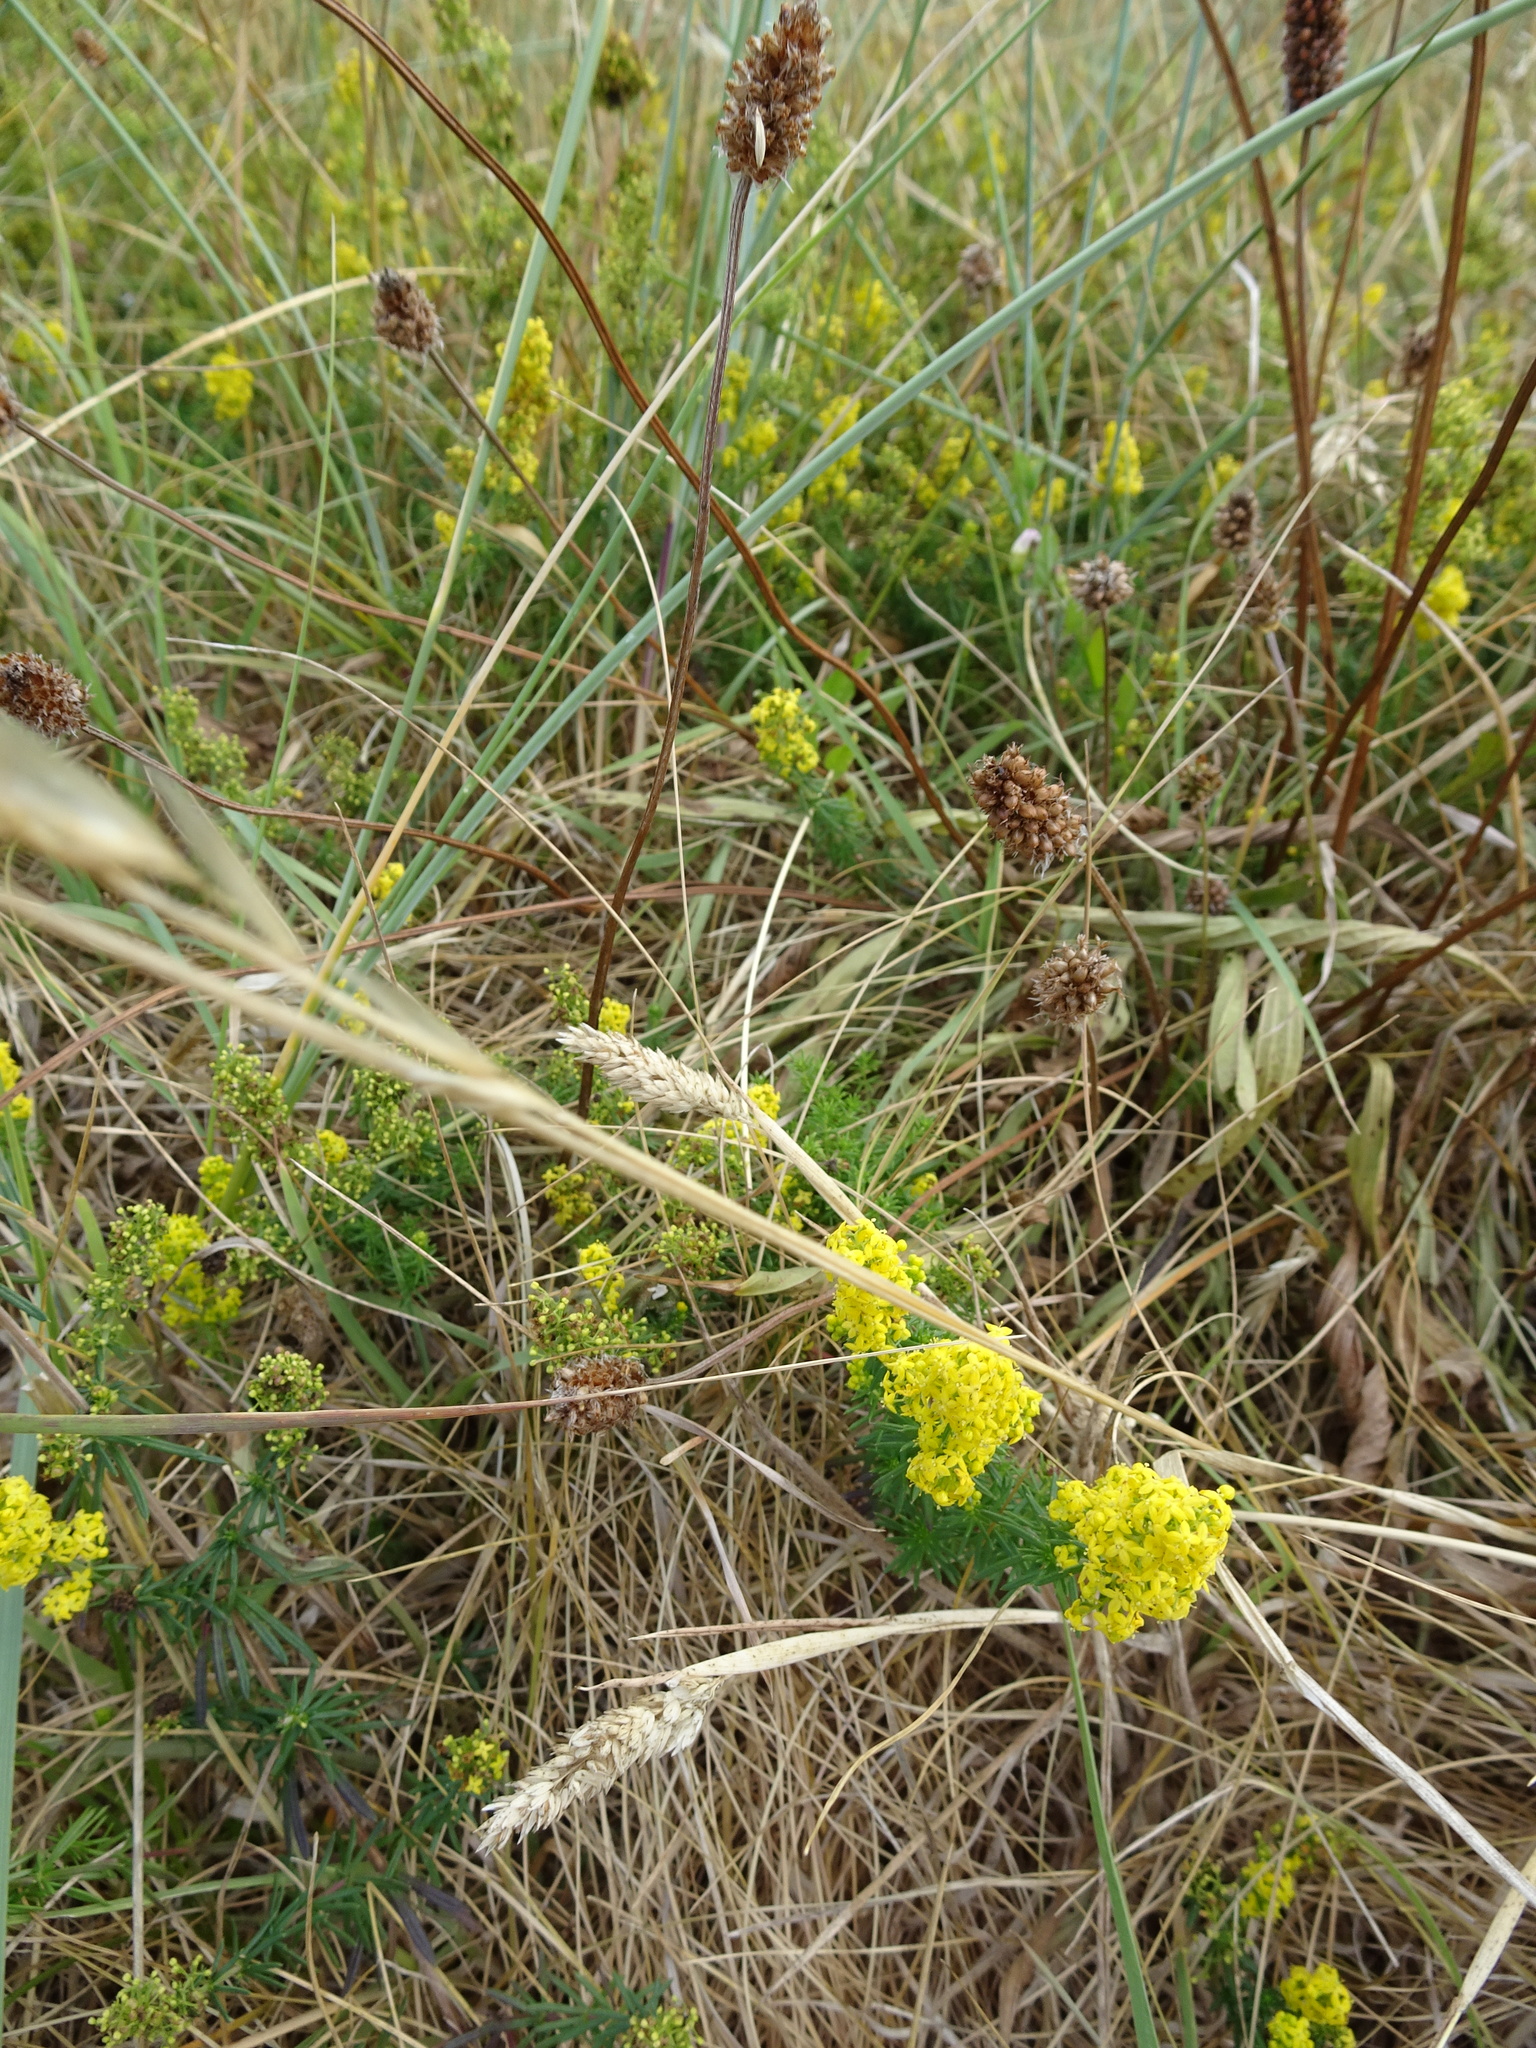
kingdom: Plantae
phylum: Tracheophyta
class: Magnoliopsida
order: Gentianales
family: Rubiaceae
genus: Galium
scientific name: Galium verum
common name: Lady's bedstraw
